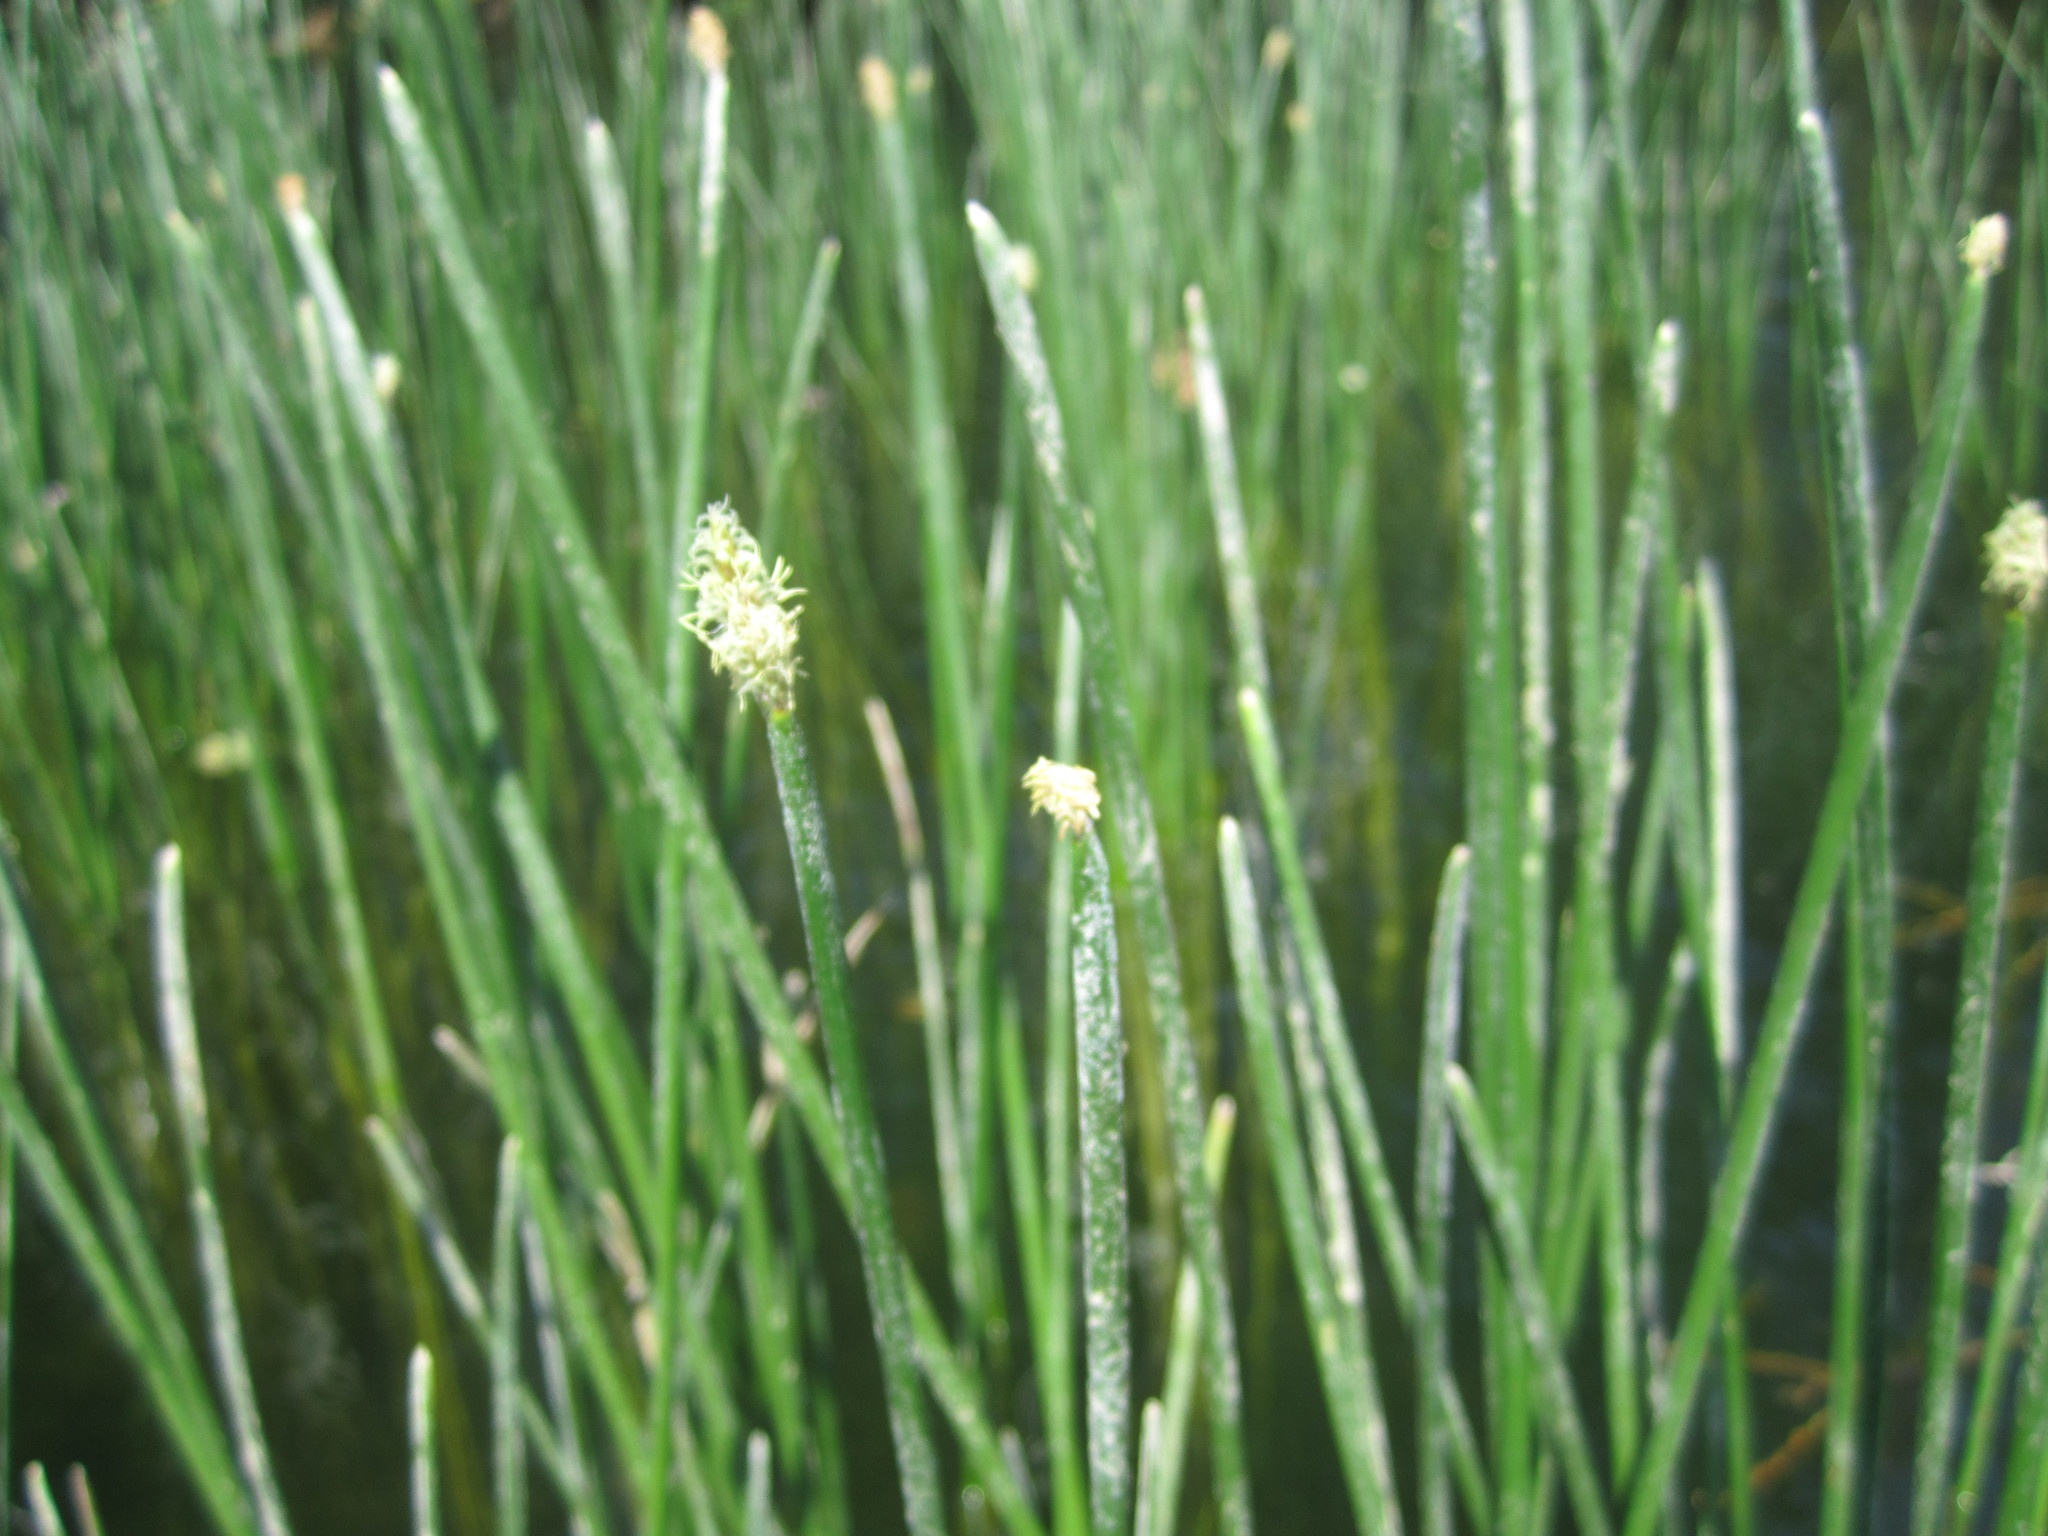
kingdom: Plantae
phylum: Tracheophyta
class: Liliopsida
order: Poales
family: Cyperaceae
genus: Eleocharis
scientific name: Eleocharis palustris
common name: Common spike-rush
